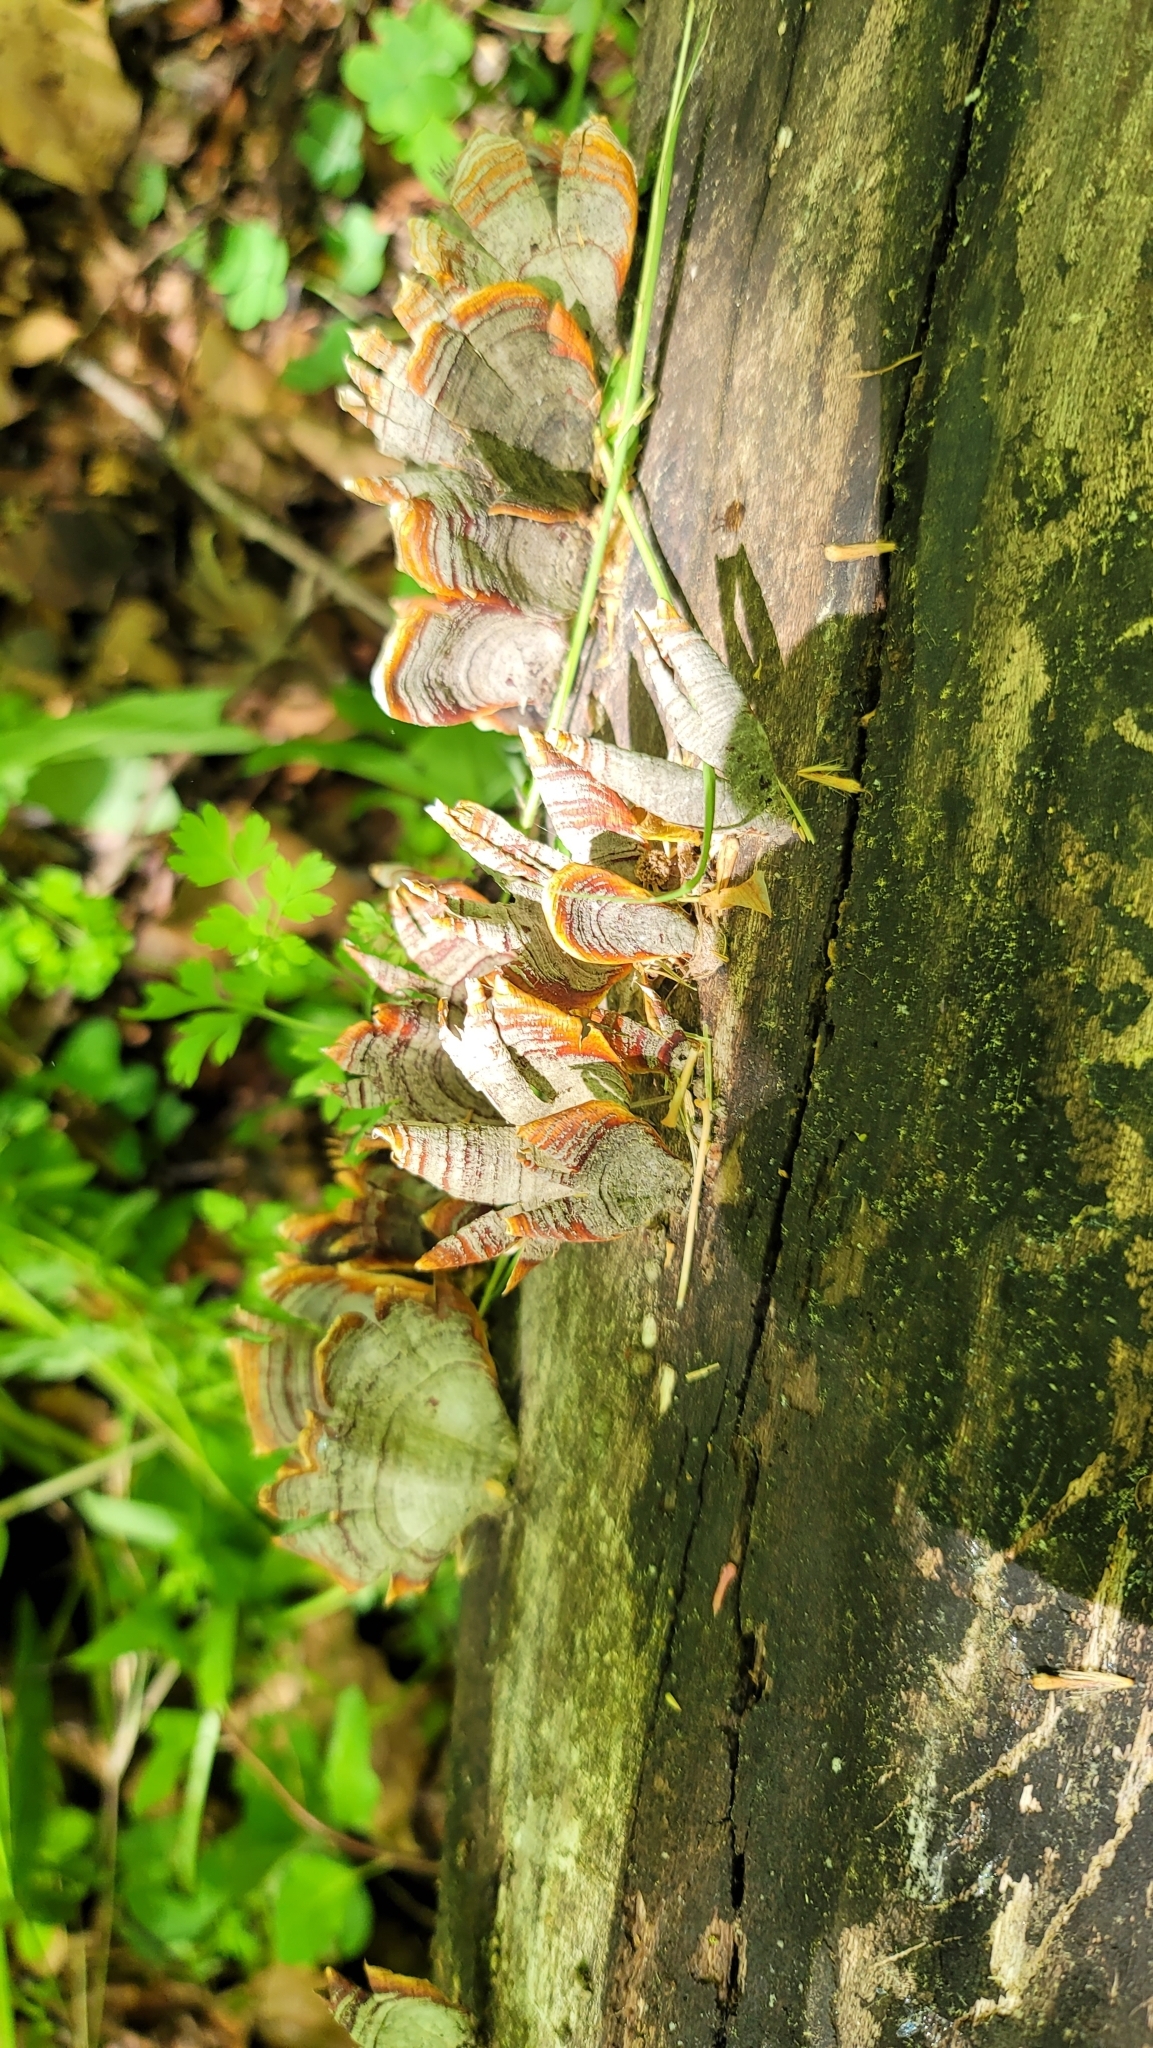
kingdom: Fungi
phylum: Basidiomycota
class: Agaricomycetes
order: Russulales
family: Stereaceae
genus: Stereum
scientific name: Stereum lobatum
